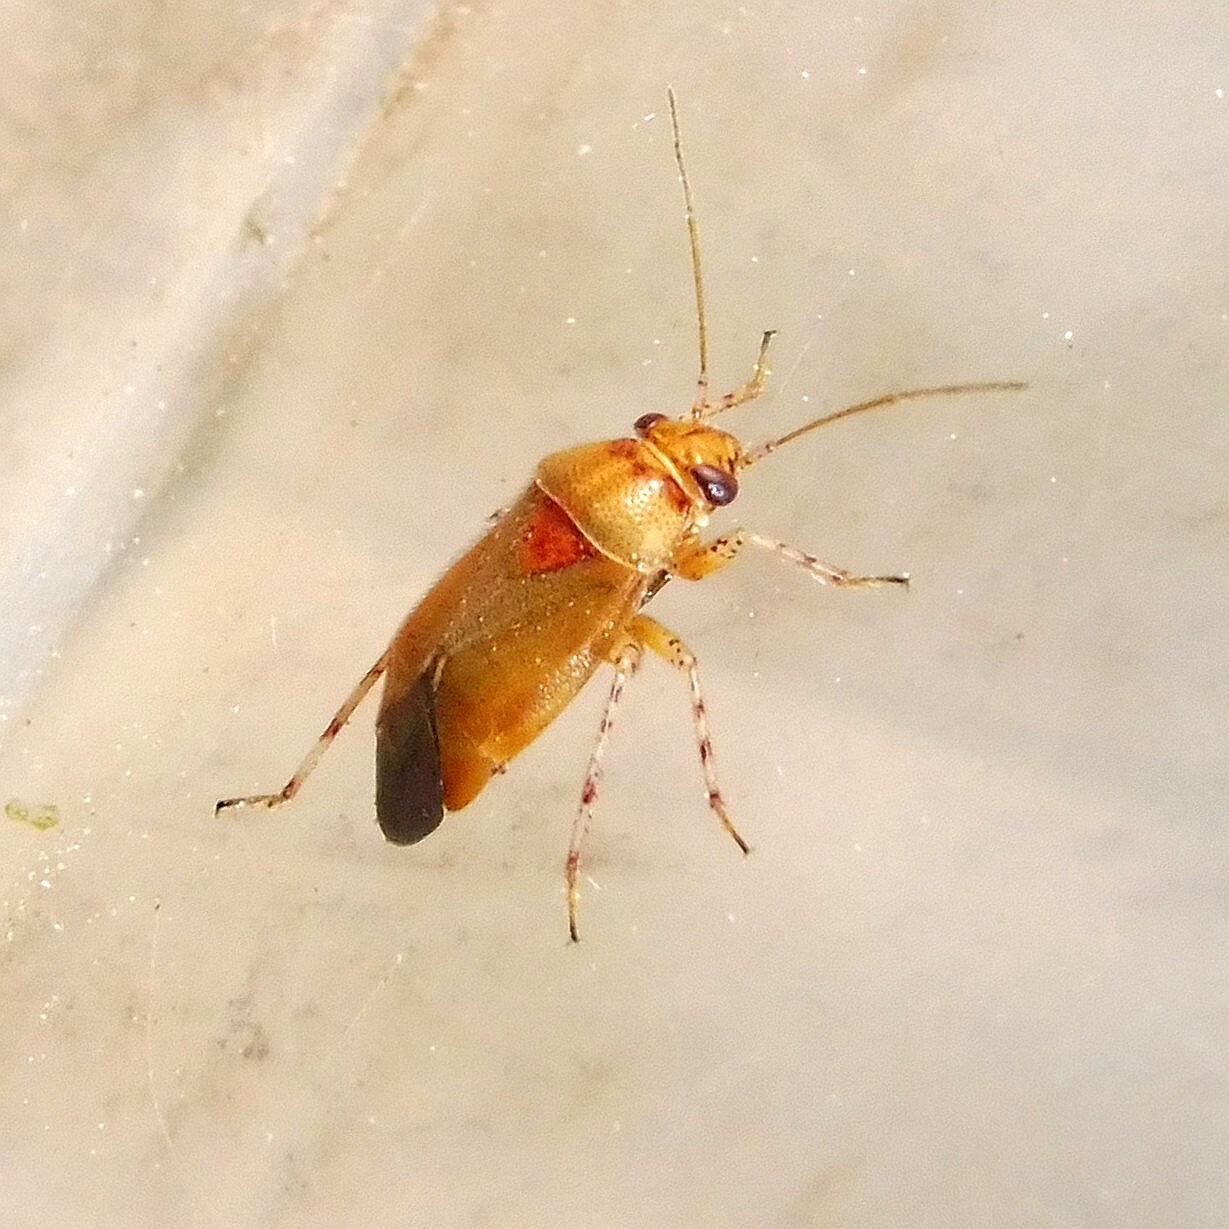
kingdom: Animalia
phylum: Arthropoda
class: Insecta
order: Hemiptera
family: Miridae
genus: Camptozygum
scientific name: Camptozygum aequale
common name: Plant bug
